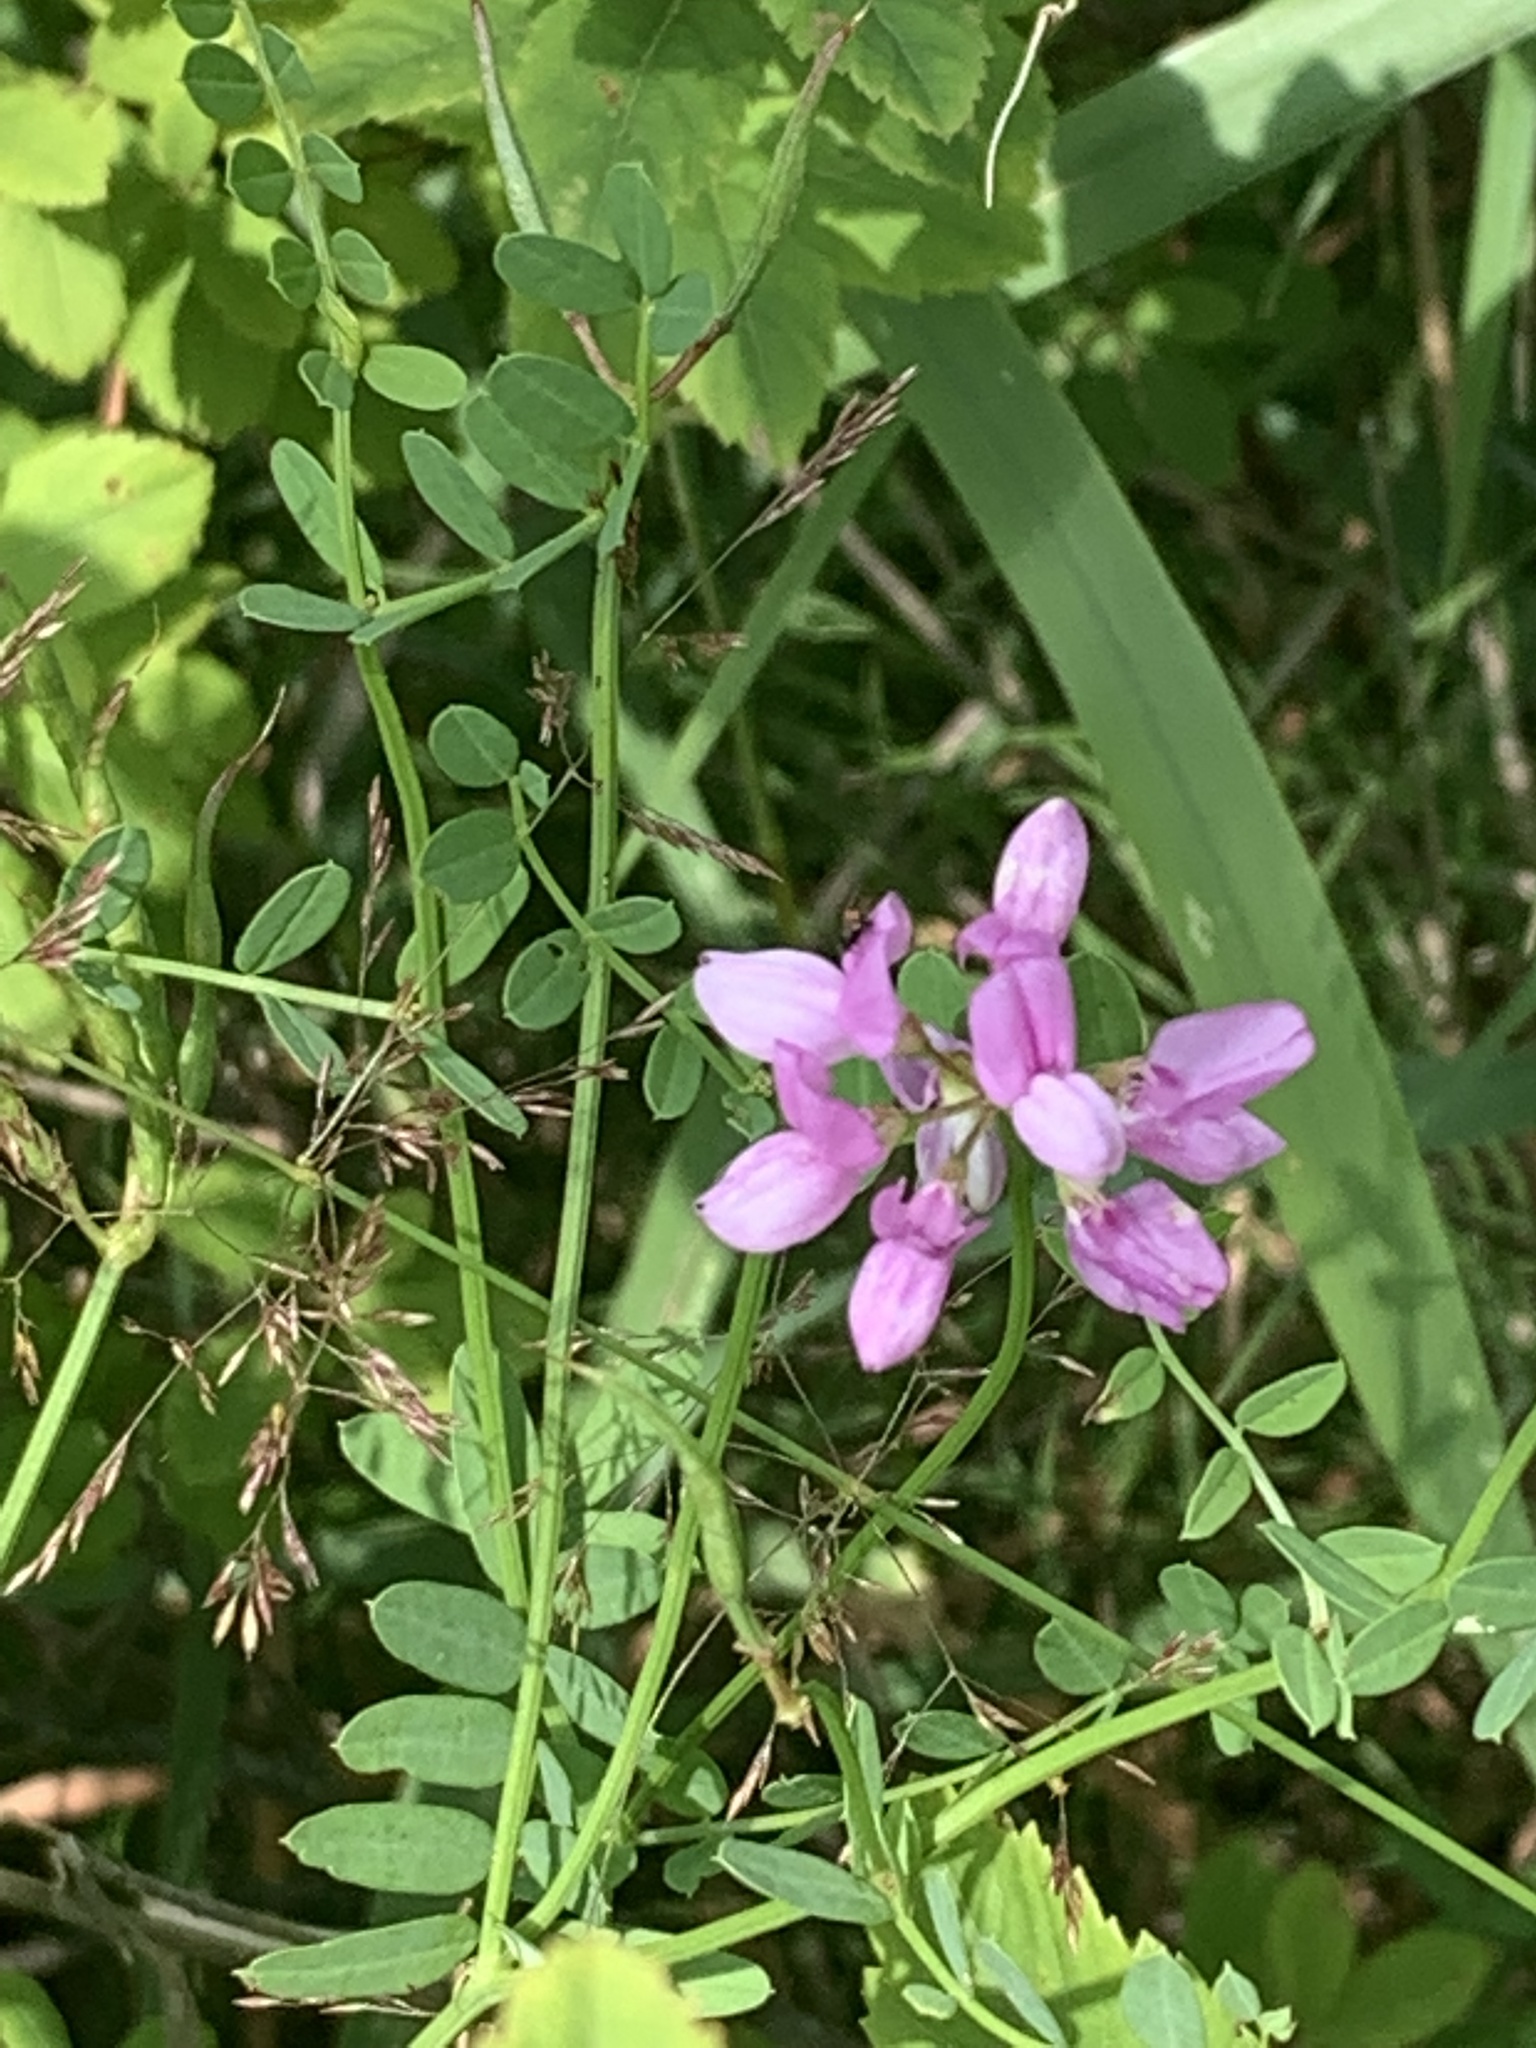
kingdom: Plantae
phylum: Tracheophyta
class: Magnoliopsida
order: Fabales
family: Fabaceae
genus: Coronilla
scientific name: Coronilla varia
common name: Crownvetch
